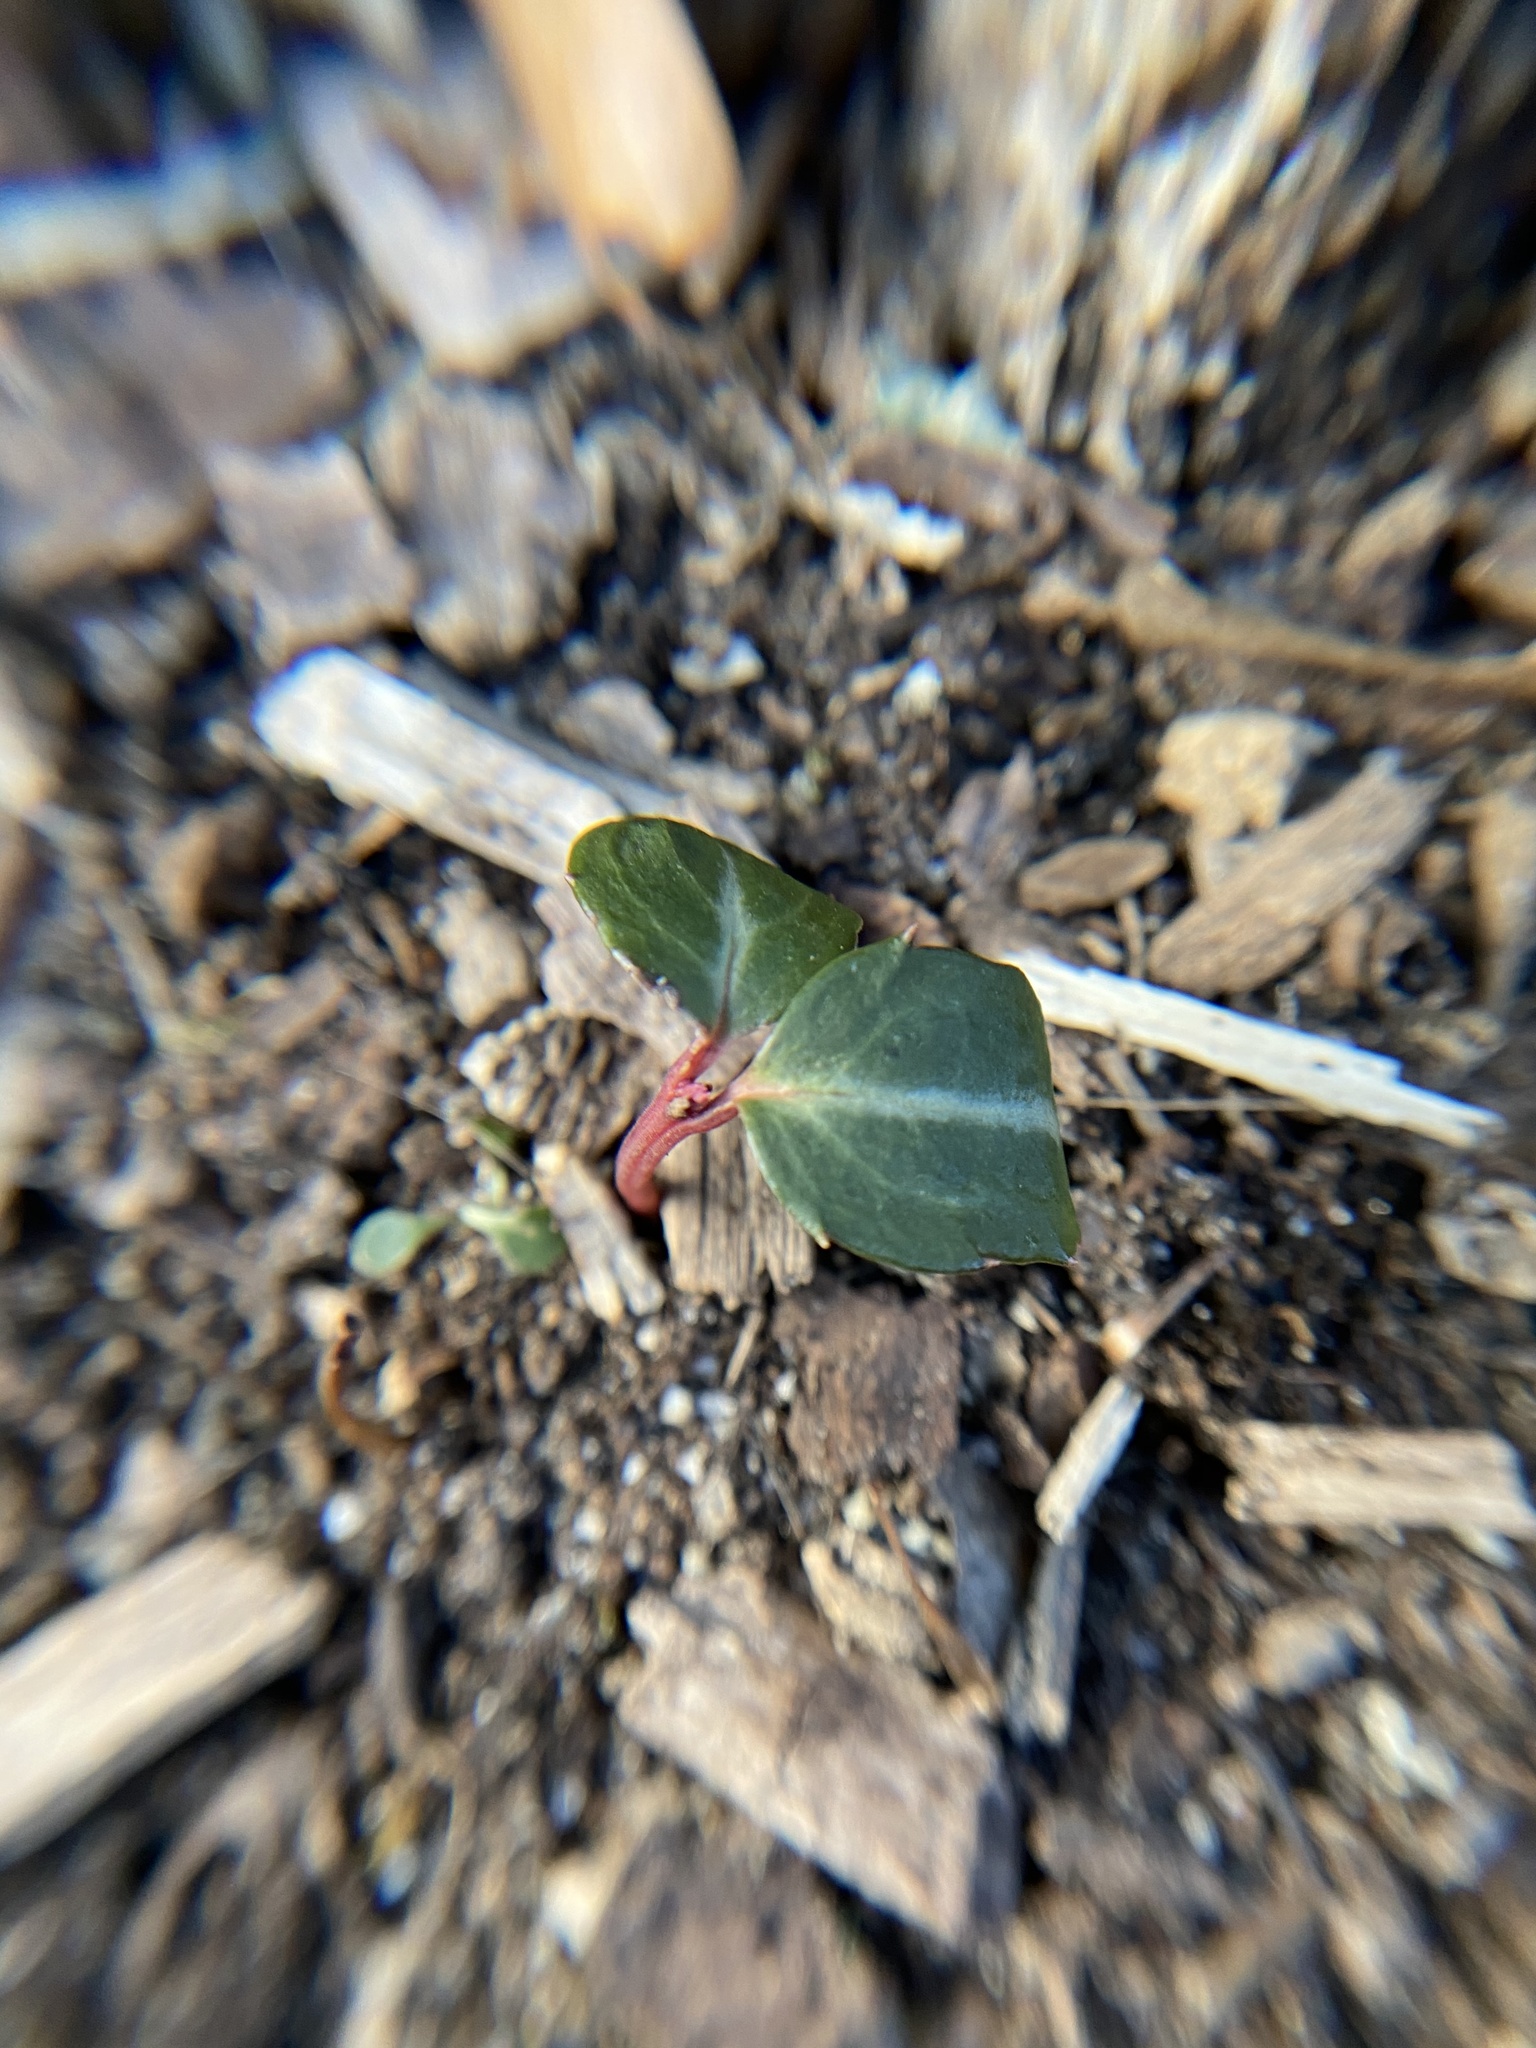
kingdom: Plantae
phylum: Tracheophyta
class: Magnoliopsida
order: Ericales
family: Ericaceae
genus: Chimaphila
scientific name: Chimaphila maculata
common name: Spotted pipsissewa
